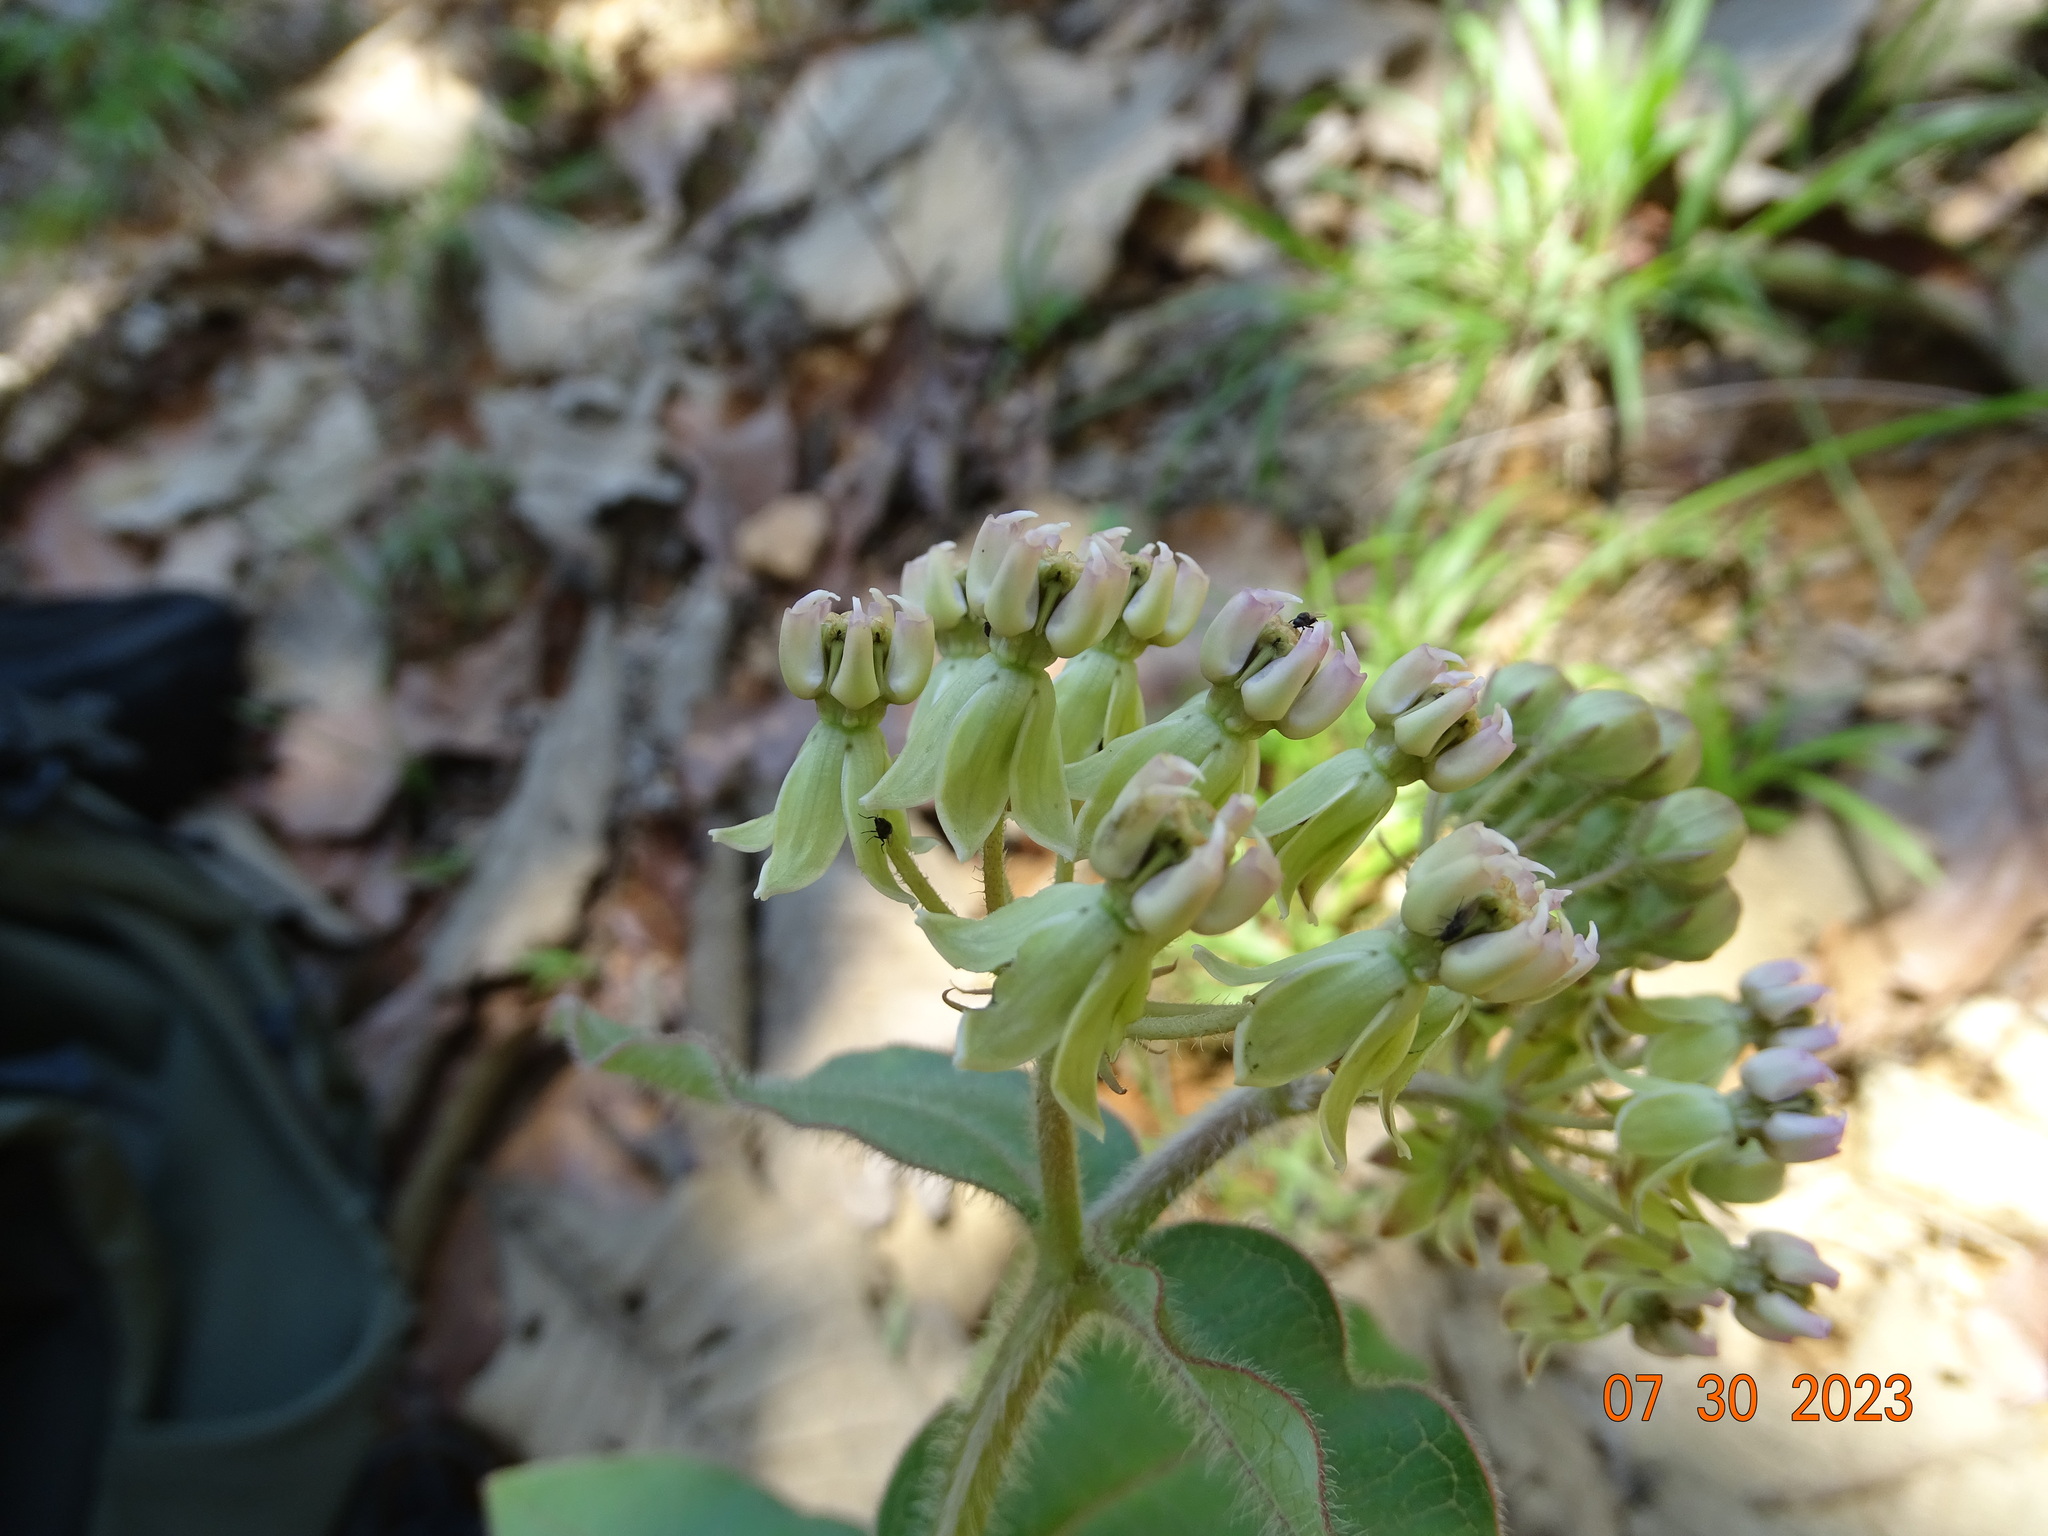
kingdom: Plantae
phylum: Tracheophyta
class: Magnoliopsida
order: Gentianales
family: Apocynaceae
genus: Asclepias
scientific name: Asclepias jaliscana
